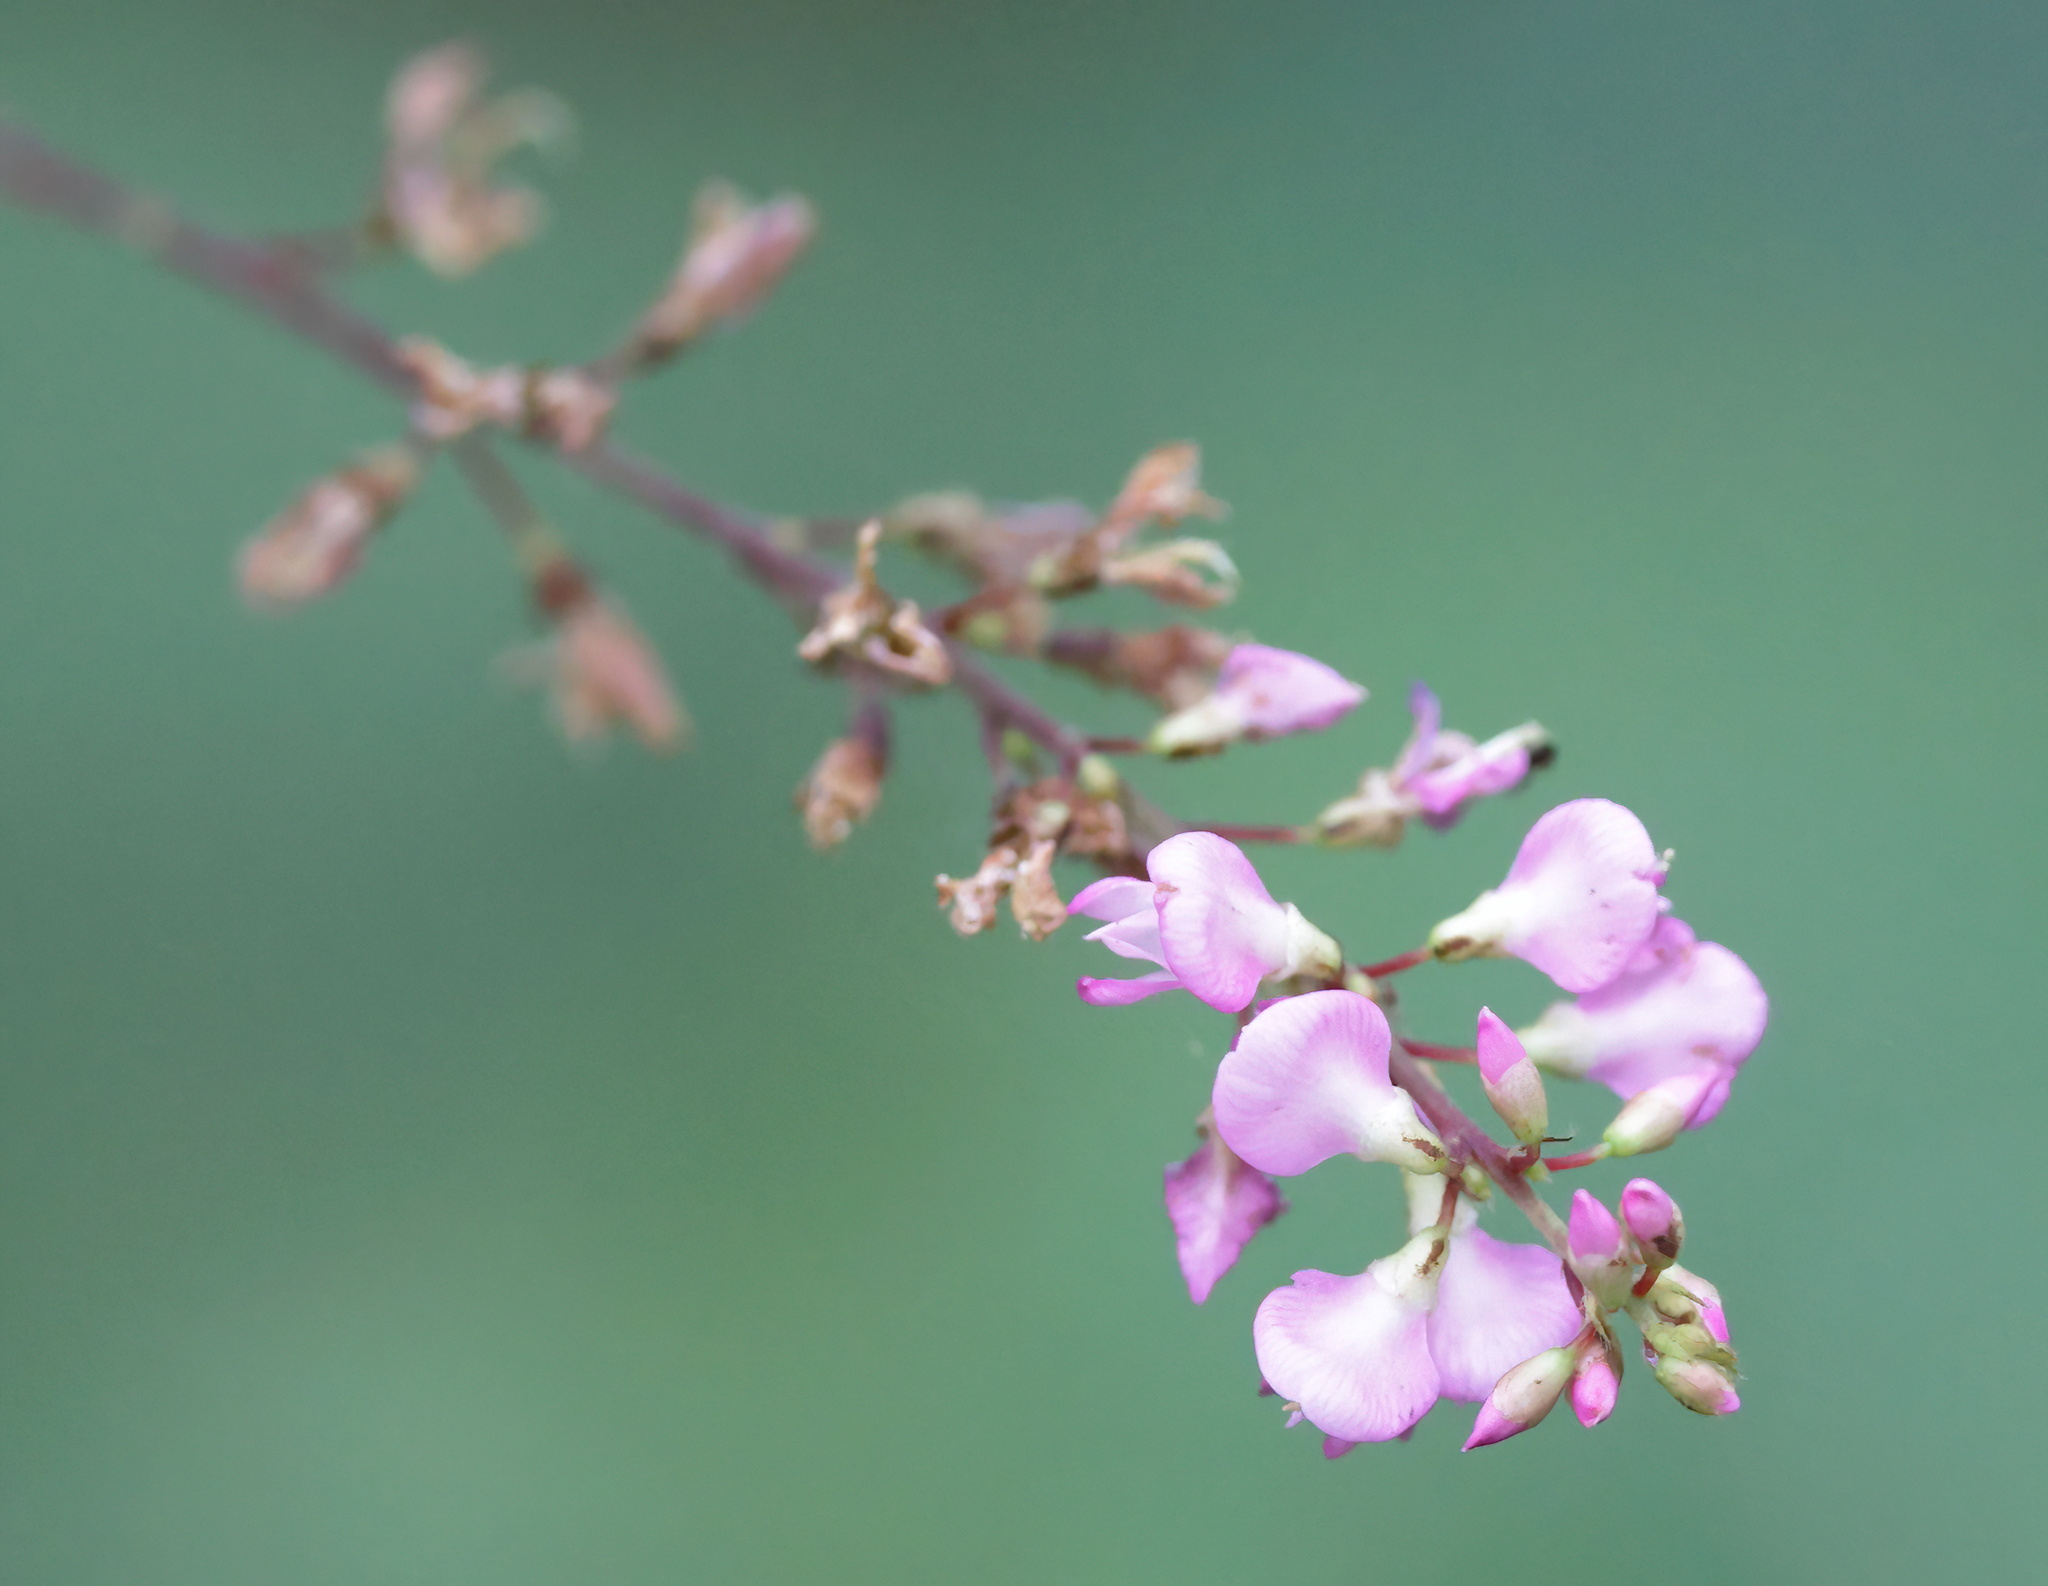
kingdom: Plantae
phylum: Tracheophyta
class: Magnoliopsida
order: Fabales
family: Fabaceae
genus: Hylodesmum
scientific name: Hylodesmum glutinosum
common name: Clustered-leaved tick-trefoil
